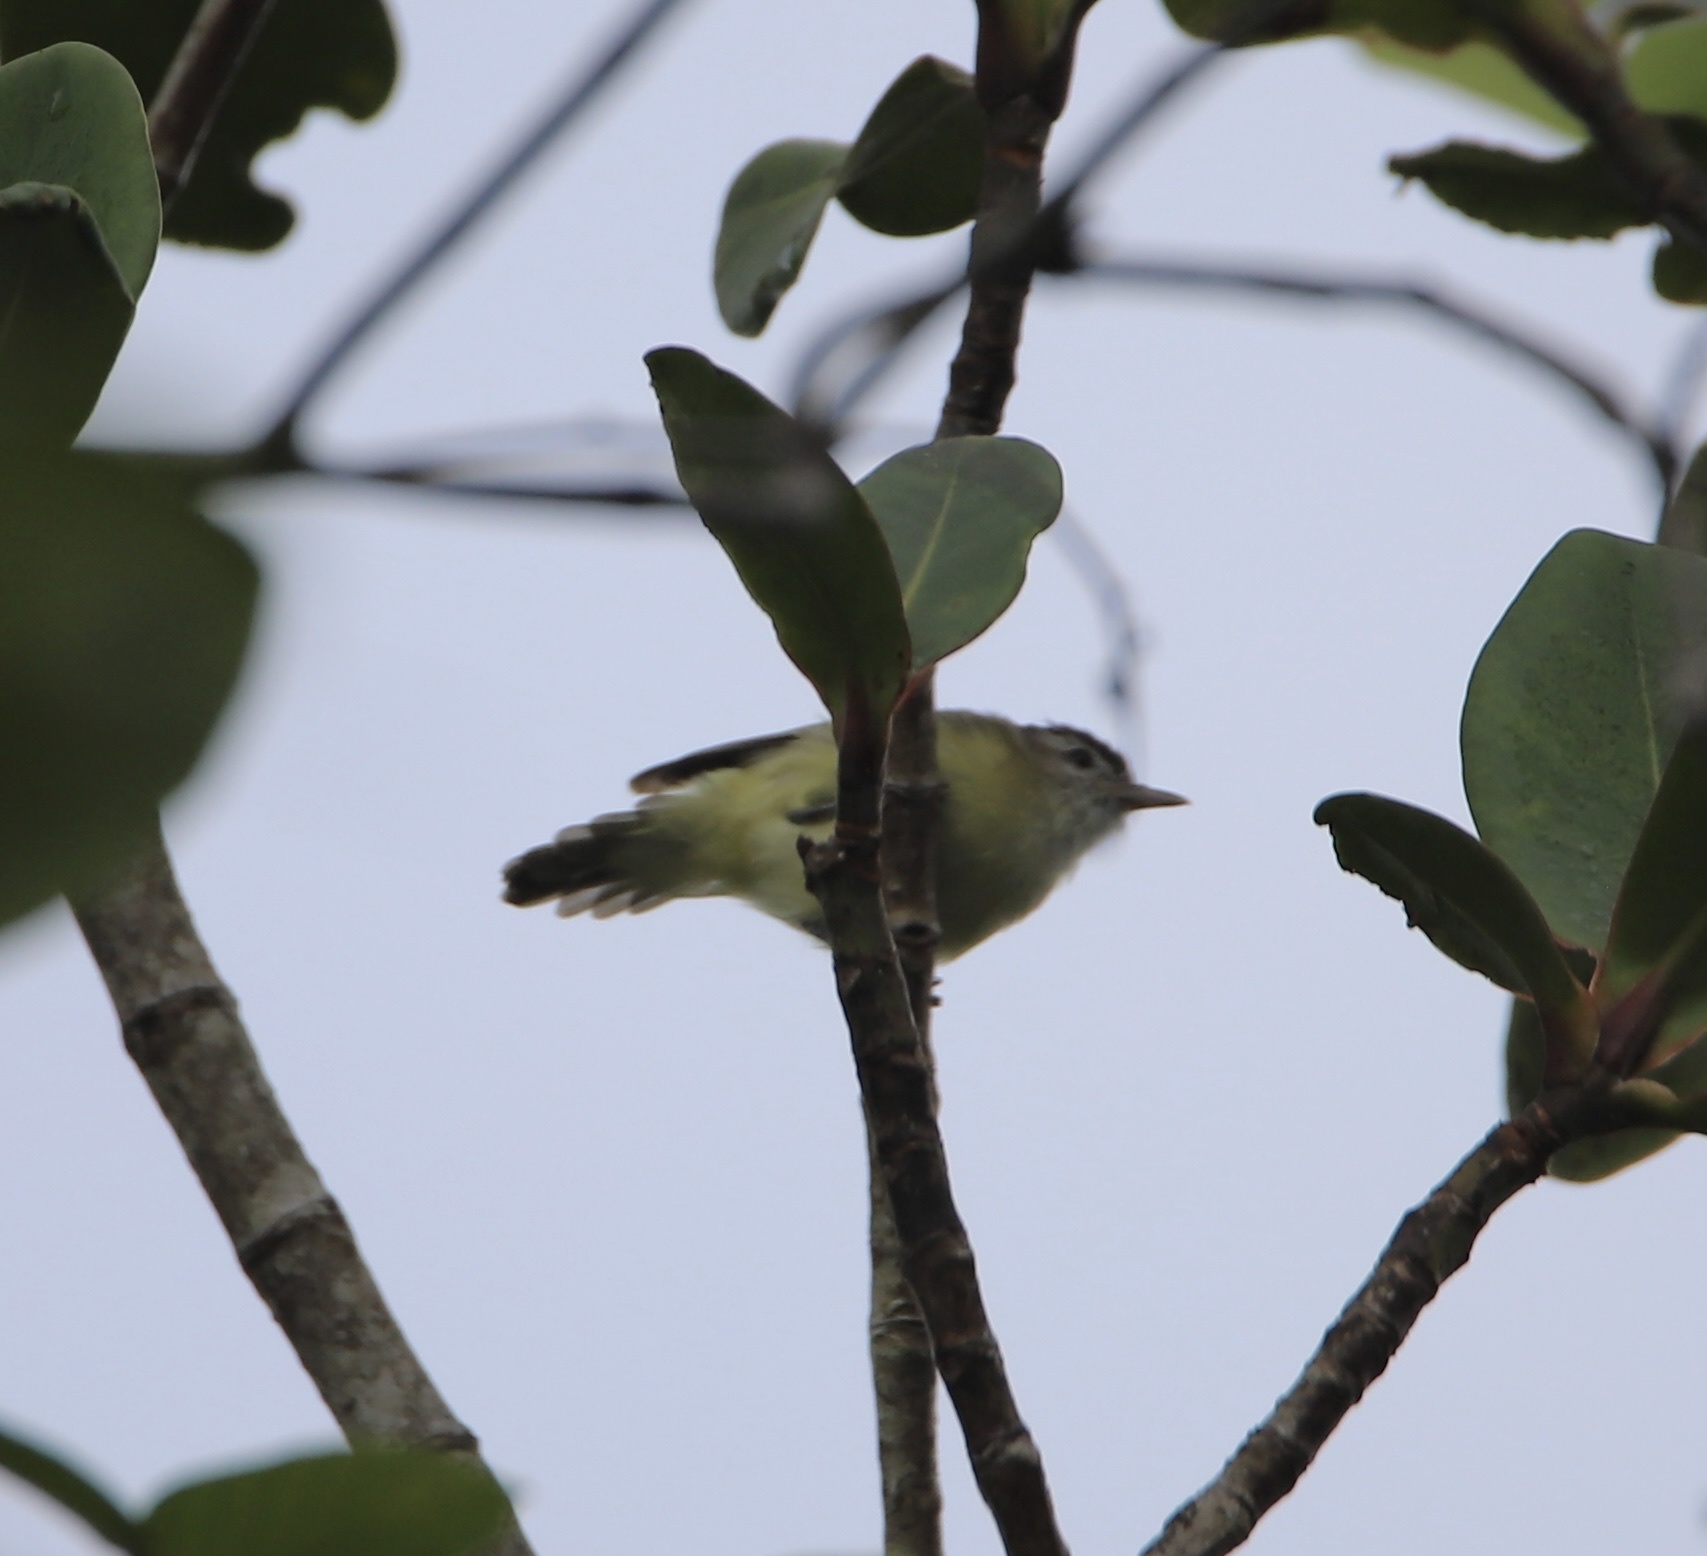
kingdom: Animalia
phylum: Chordata
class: Aves
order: Passeriformes
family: Vireonidae
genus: Vireo
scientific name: Vireo leucophrys
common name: Brown-capped vireo
